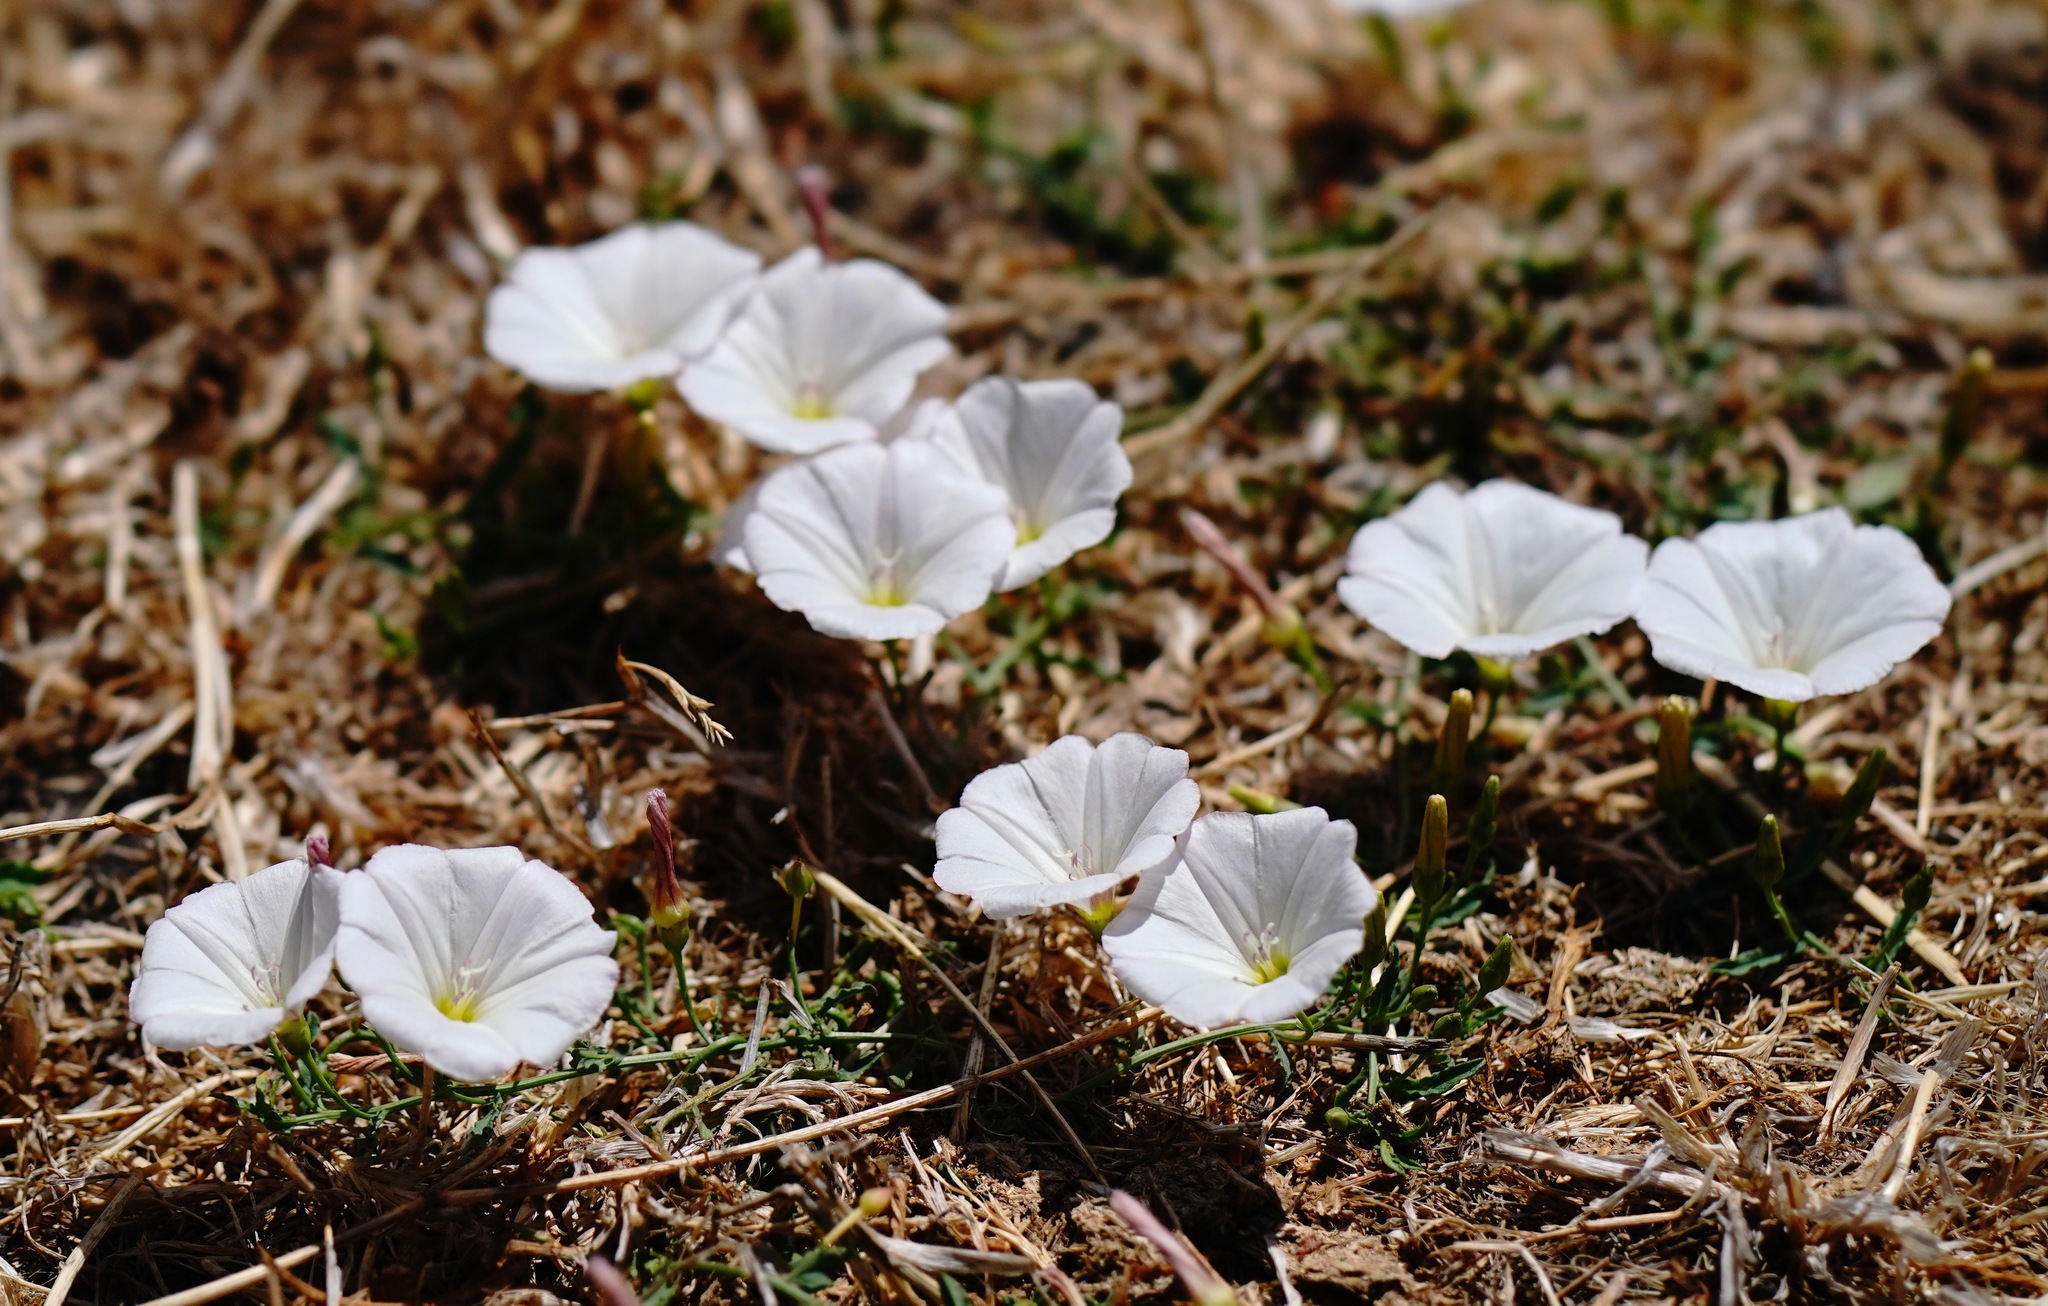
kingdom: Plantae
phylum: Tracheophyta
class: Magnoliopsida
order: Solanales
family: Convolvulaceae
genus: Convolvulus
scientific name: Convolvulus arvensis
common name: Field bindweed
